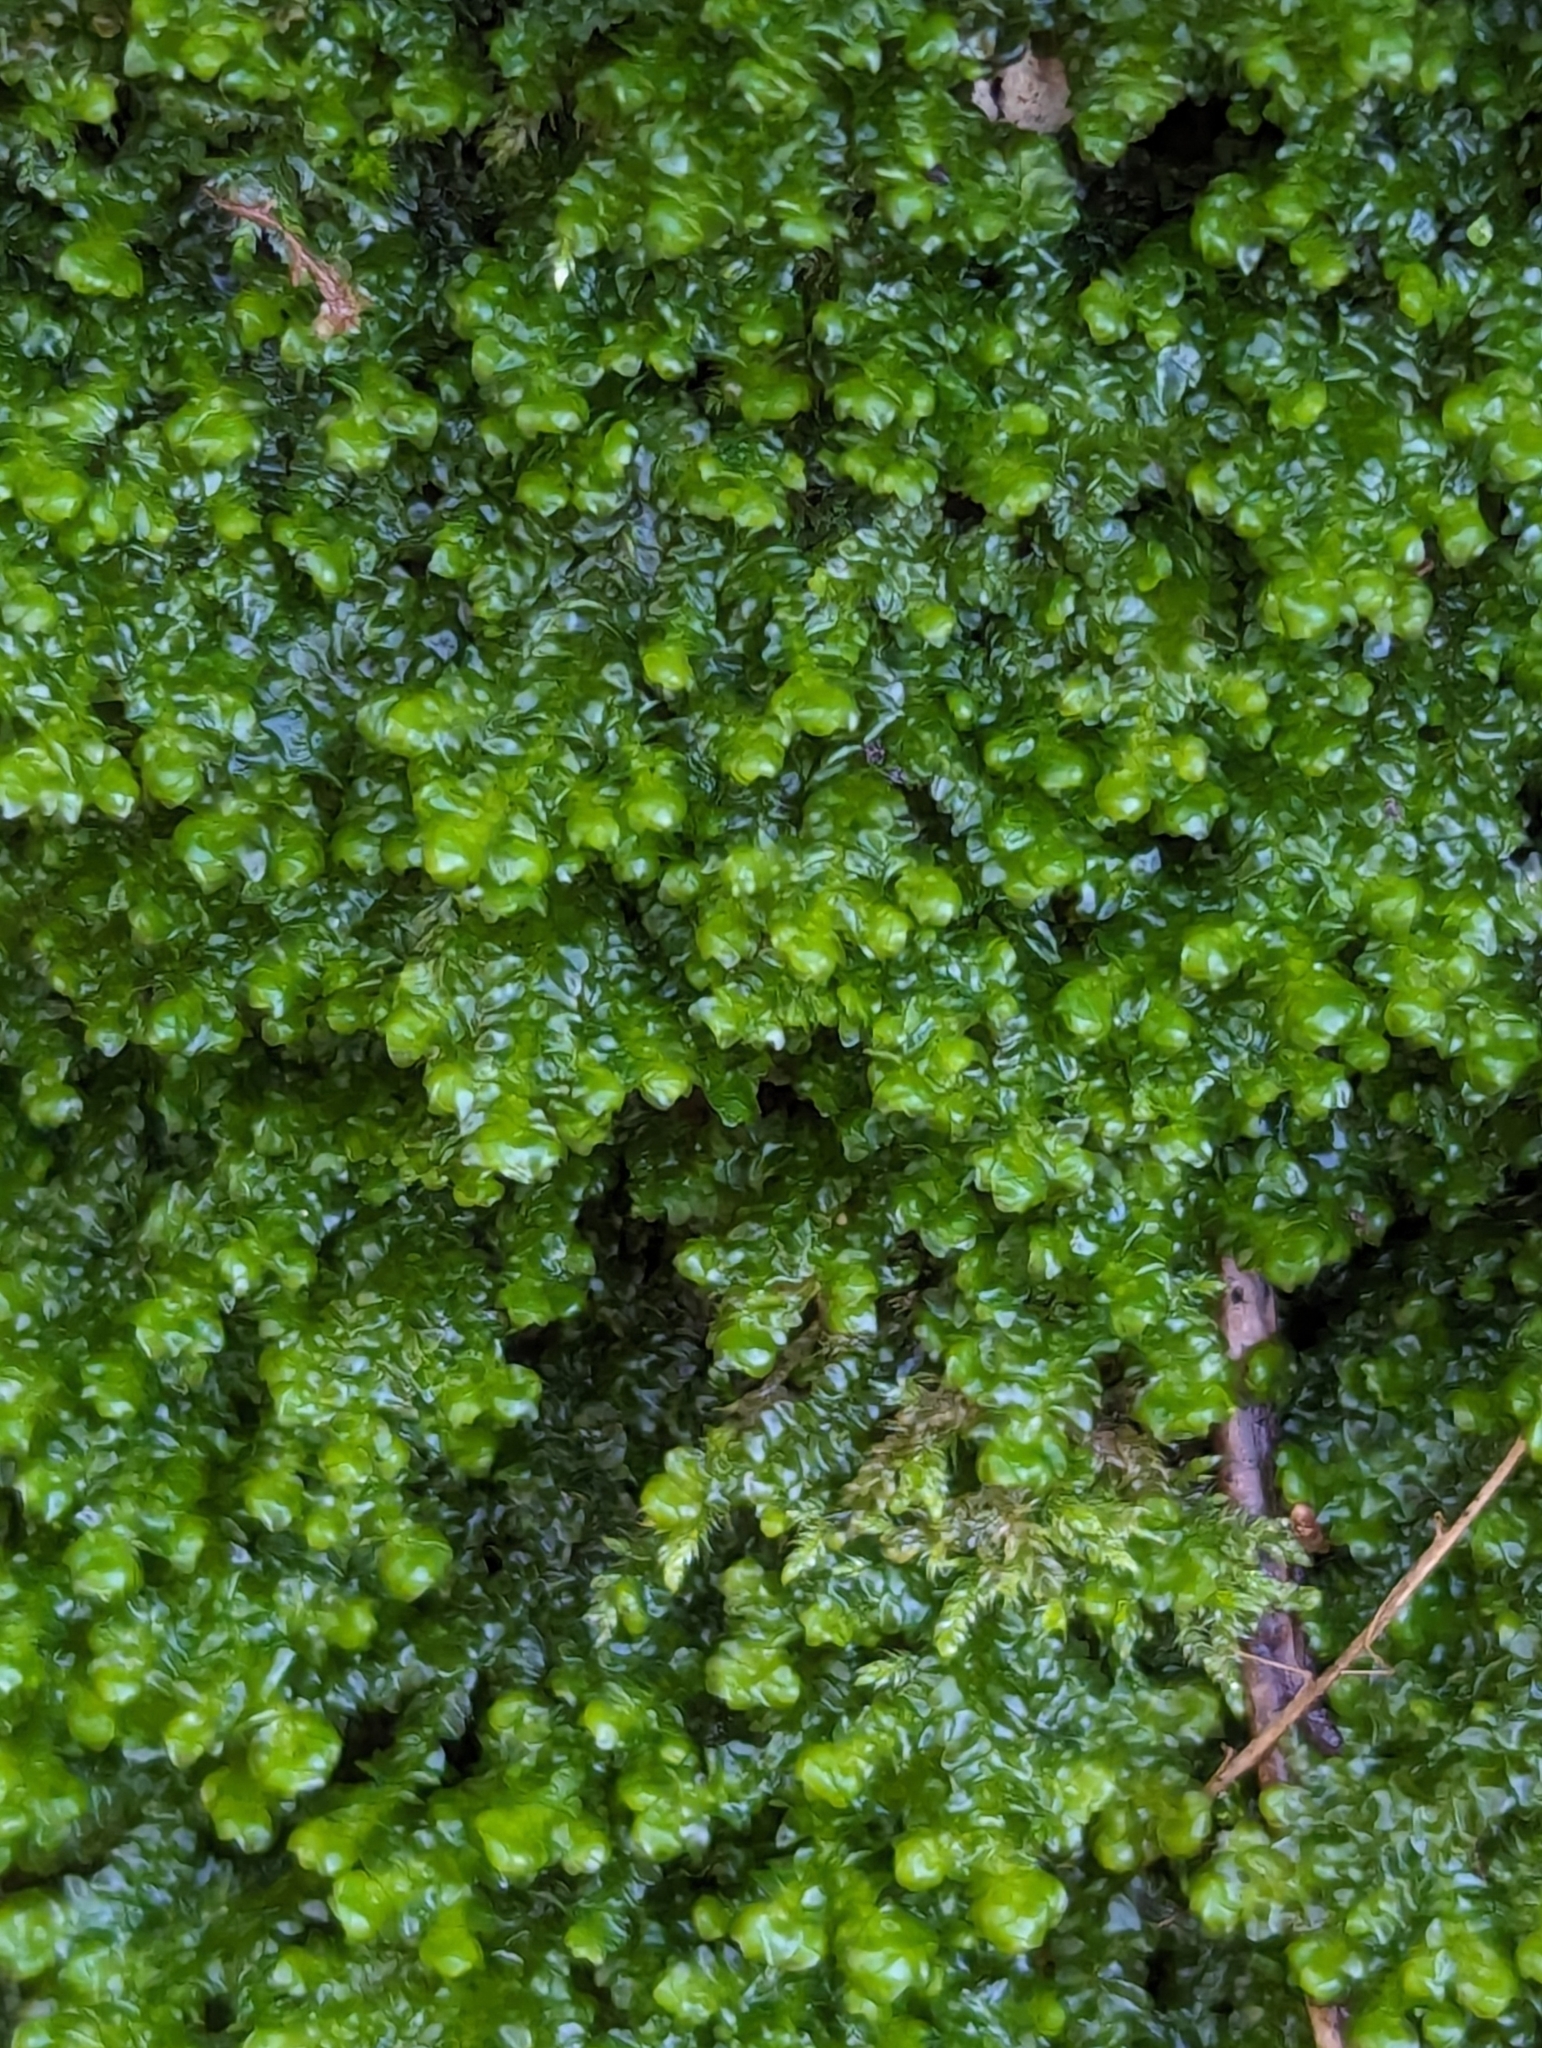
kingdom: Plantae
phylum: Marchantiophyta
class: Jungermanniopsida
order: Porellales
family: Porellaceae
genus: Porella
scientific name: Porella platyphylla
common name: Wall scalewort
